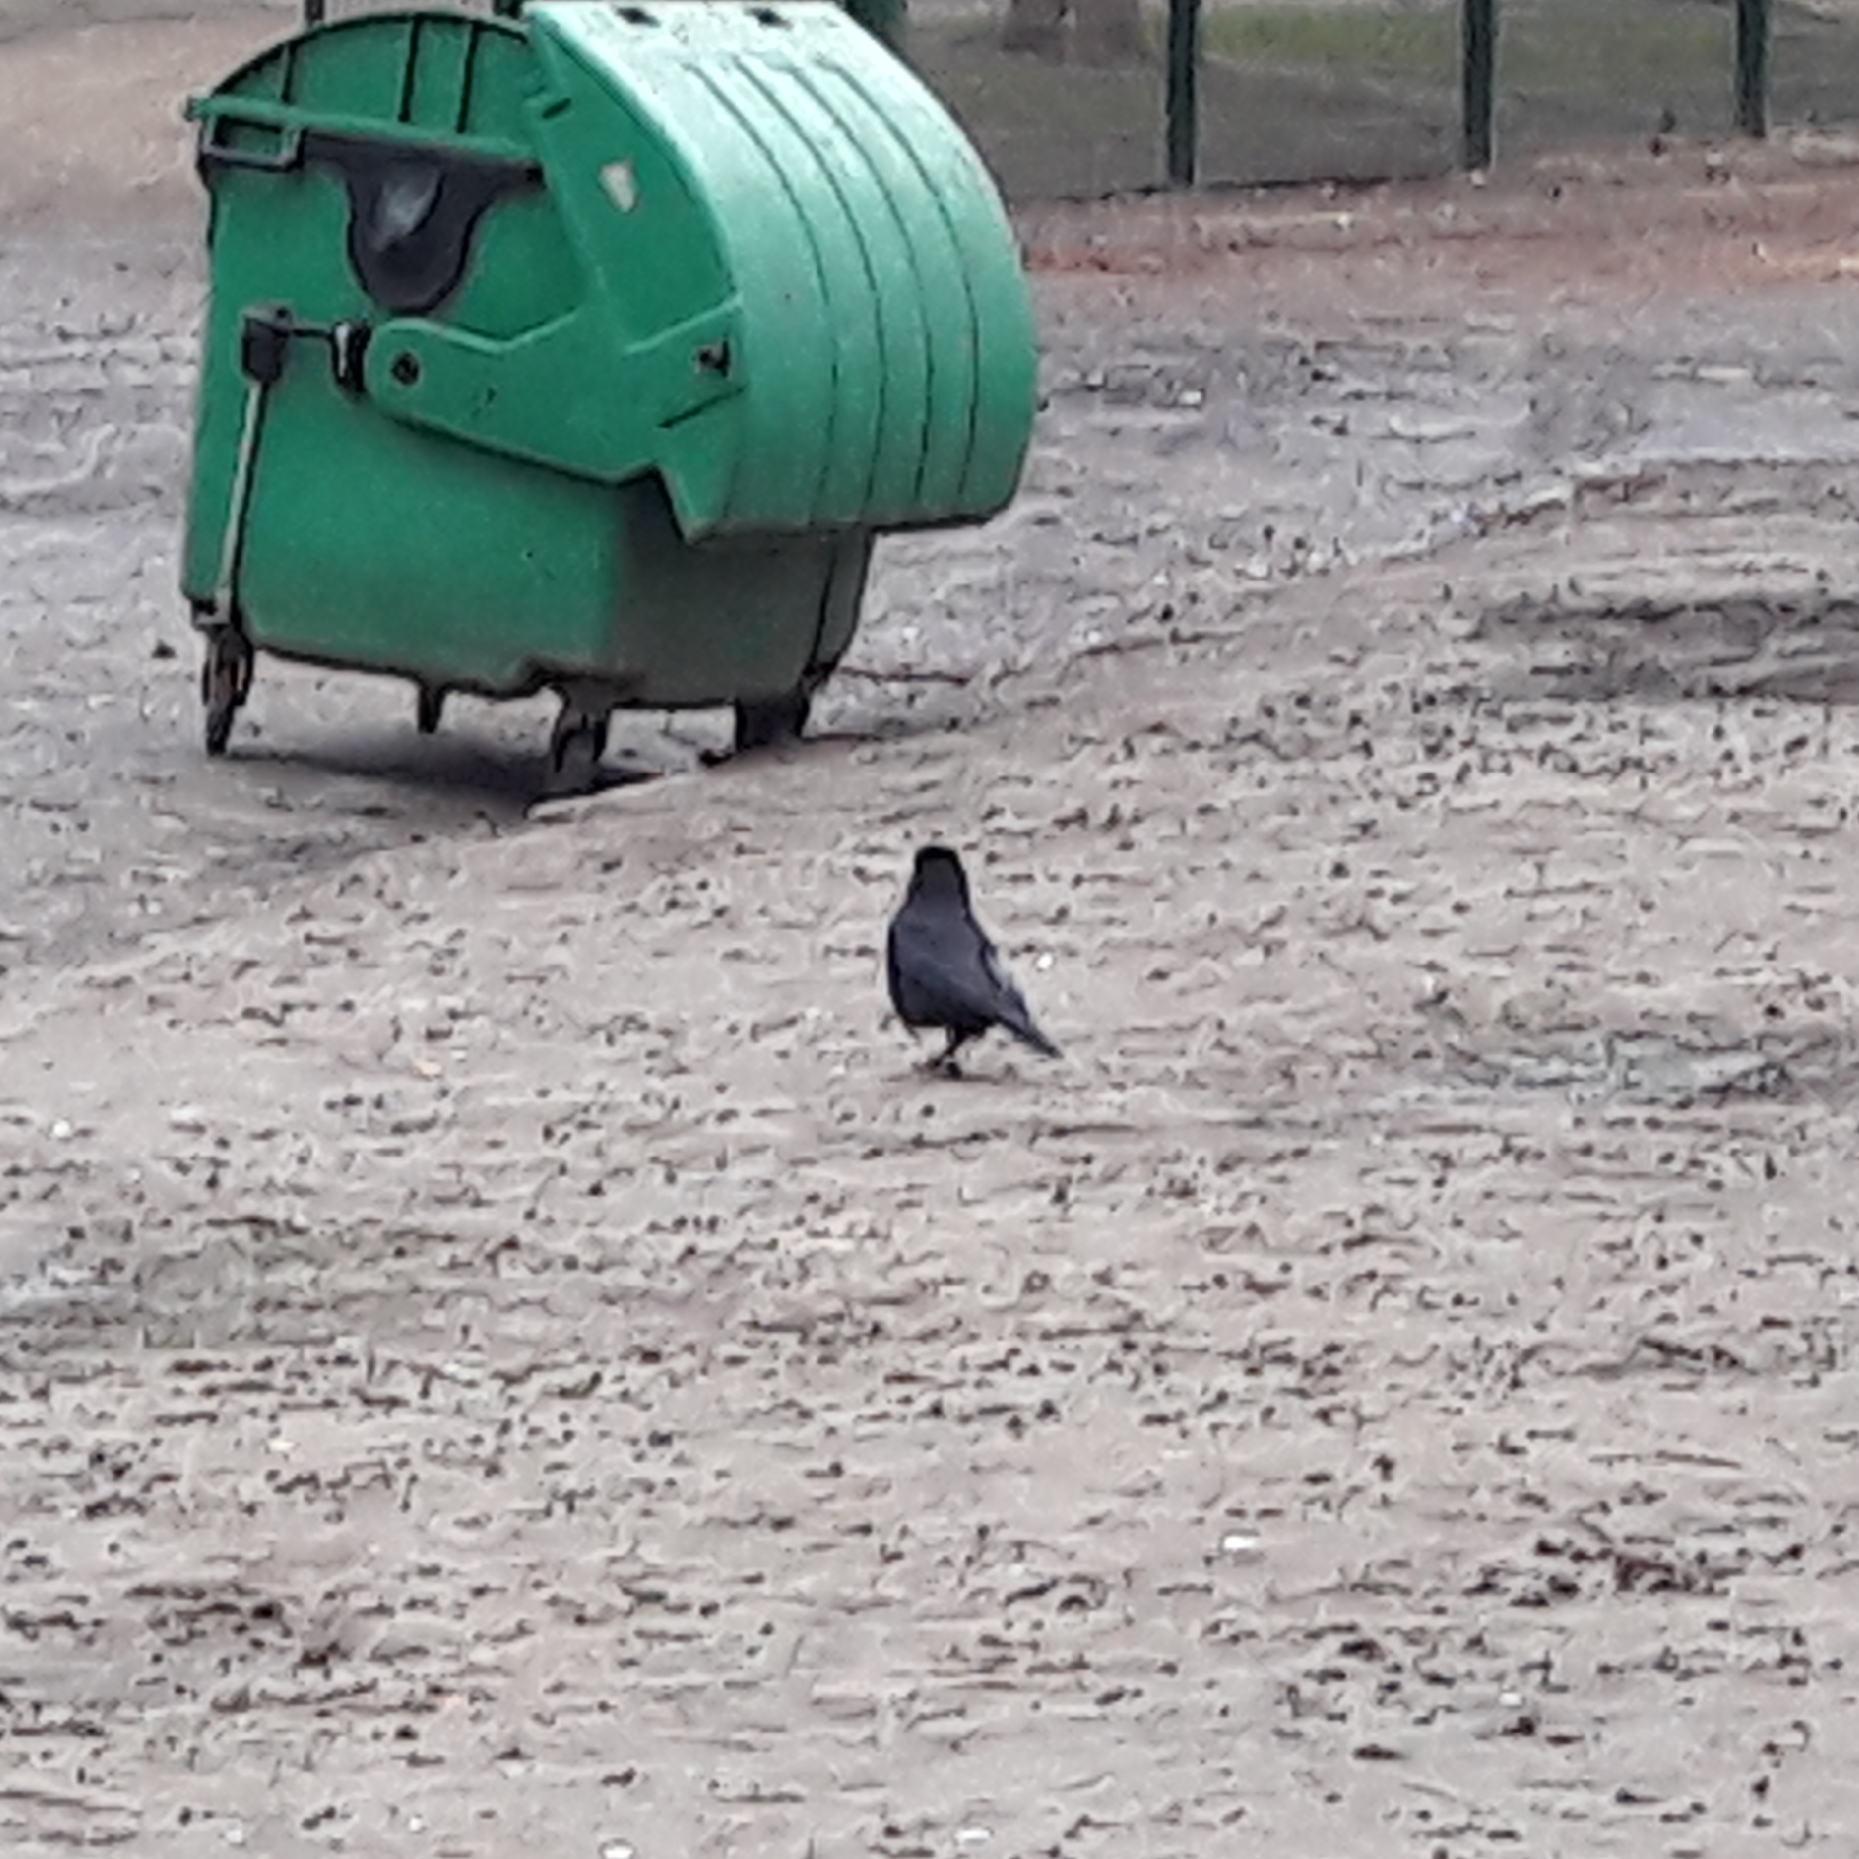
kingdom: Animalia
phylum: Chordata
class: Aves
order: Passeriformes
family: Corvidae
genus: Corvus
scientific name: Corvus corone
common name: Carrion crow
